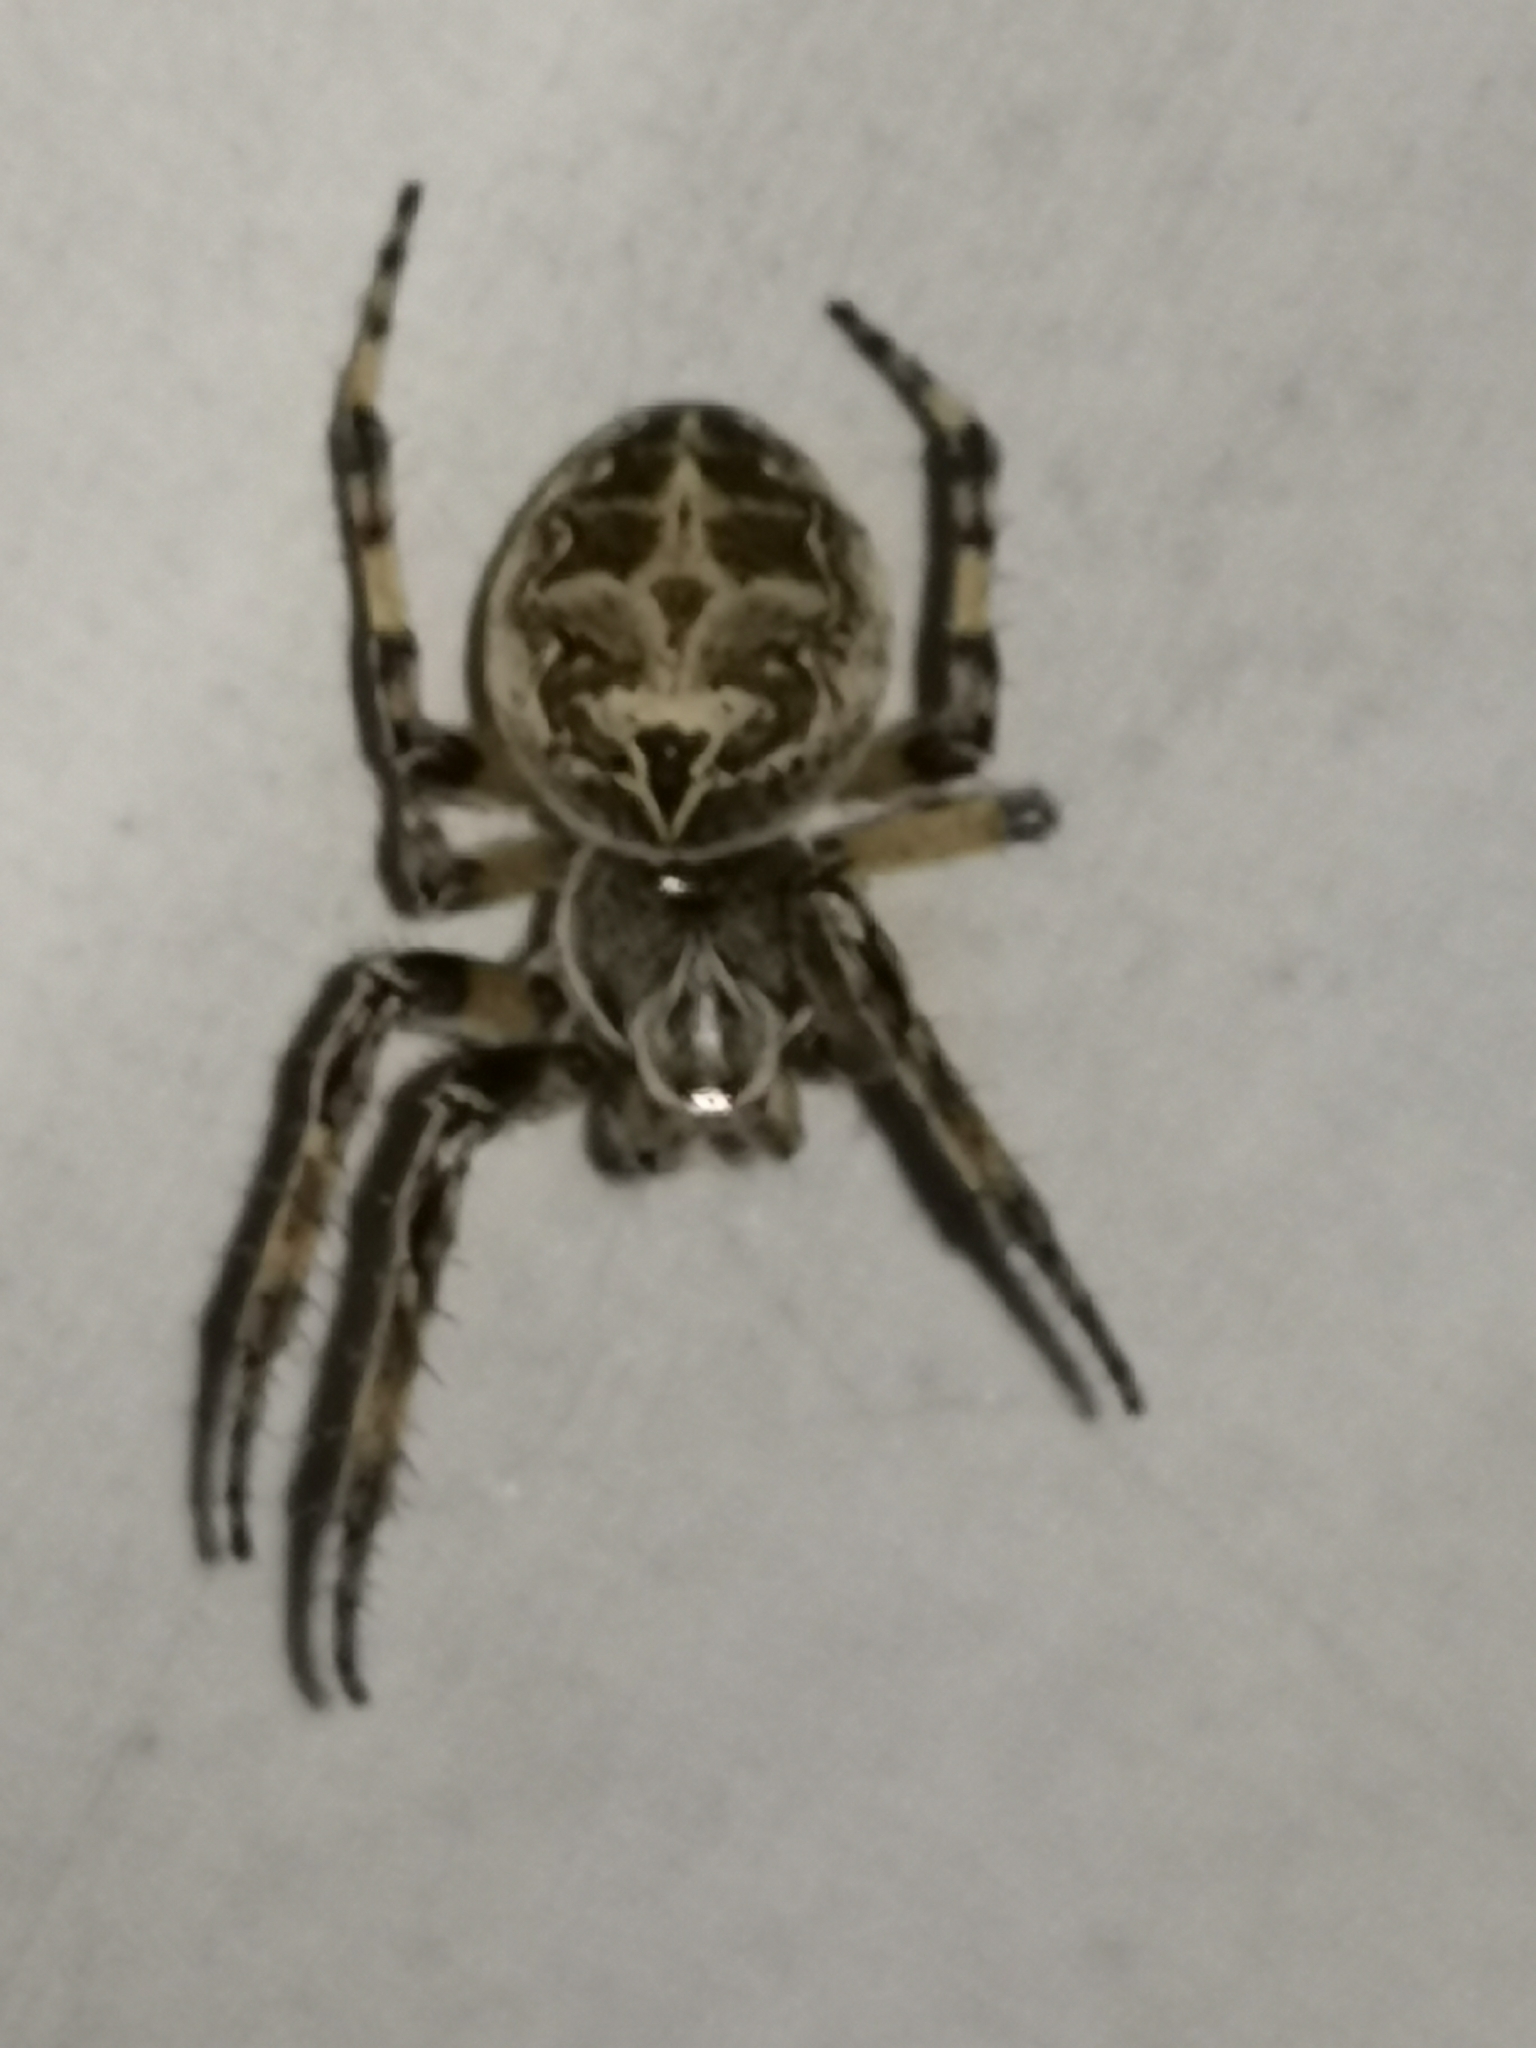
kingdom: Animalia
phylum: Arthropoda
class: Arachnida
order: Araneae
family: Araneidae
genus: Larinioides
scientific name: Larinioides sclopetarius
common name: Bridge orbweaver
